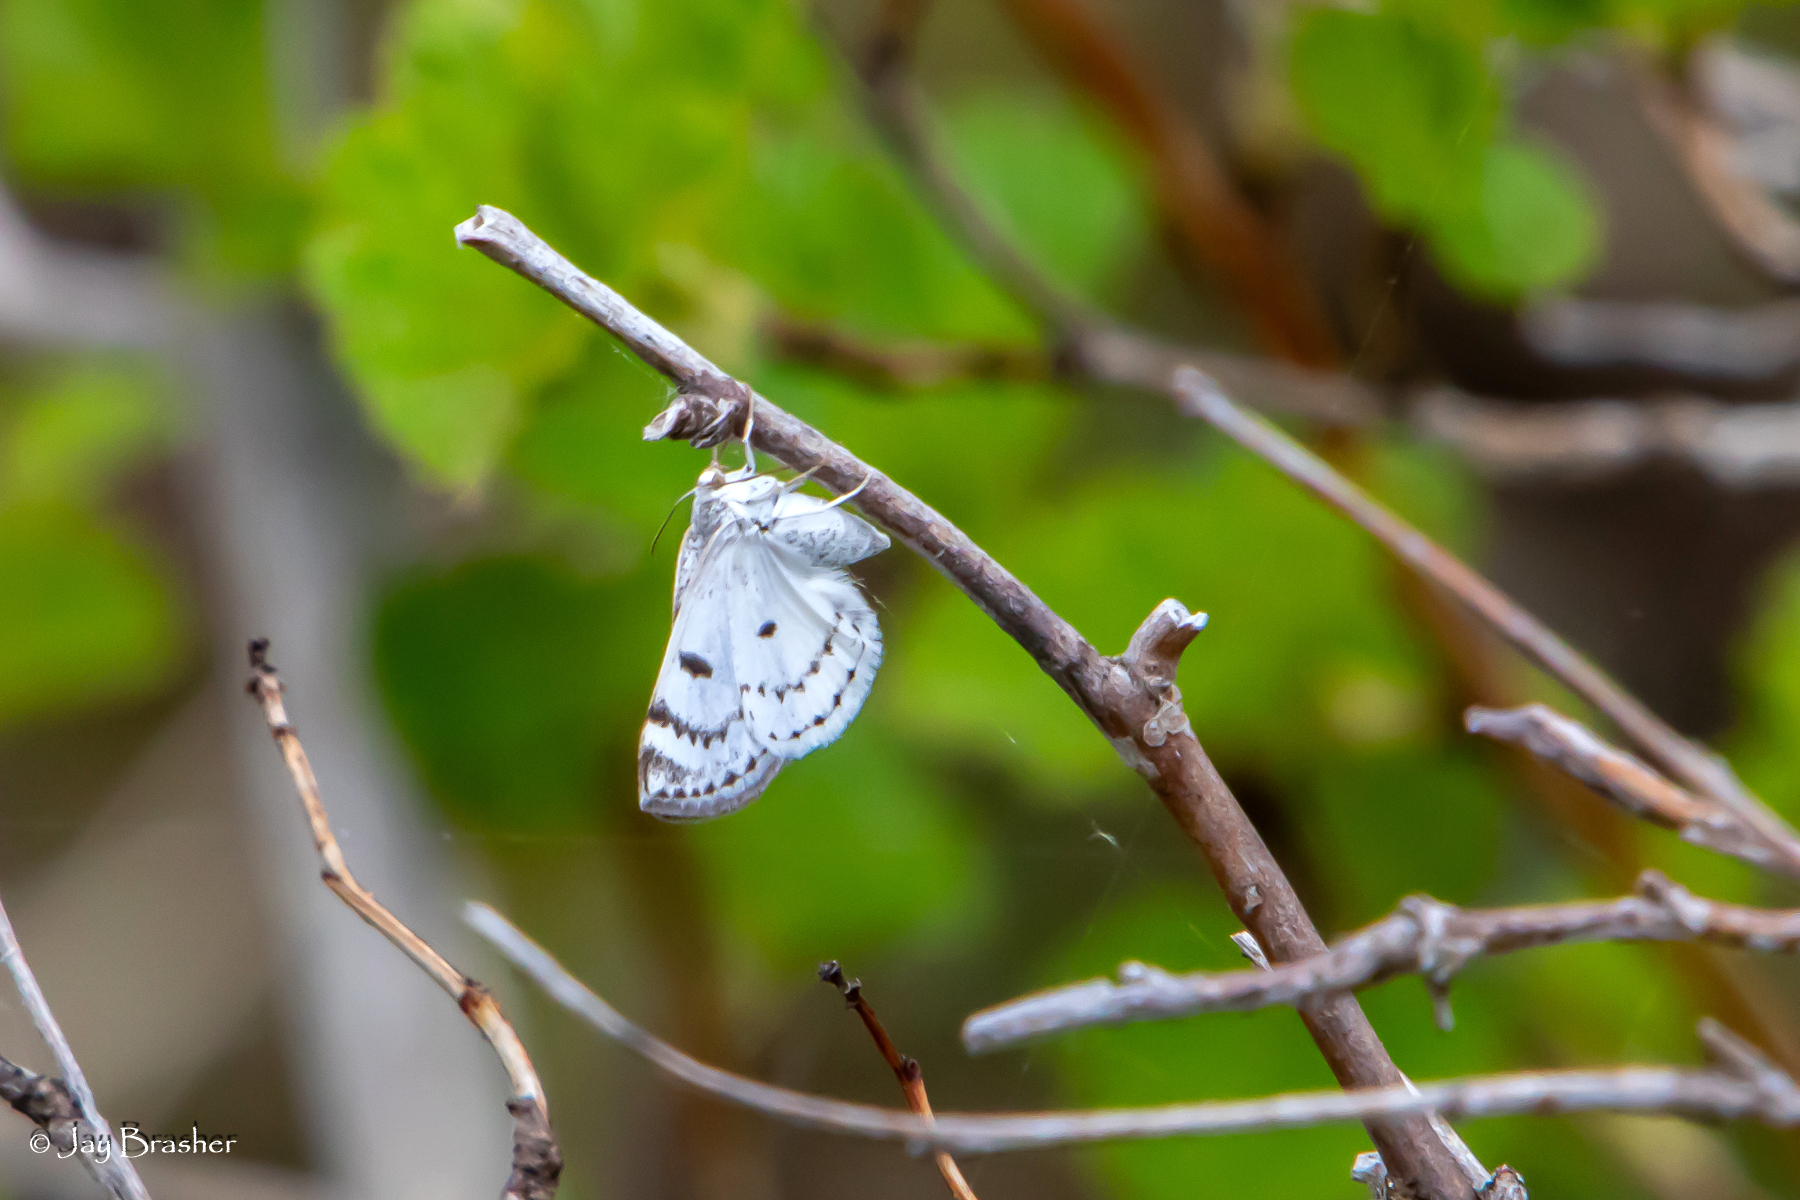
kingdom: Animalia
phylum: Arthropoda
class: Insecta
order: Lepidoptera
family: Geometridae
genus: Lomographa
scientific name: Lomographa semiclarata
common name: Bluish spring moth
